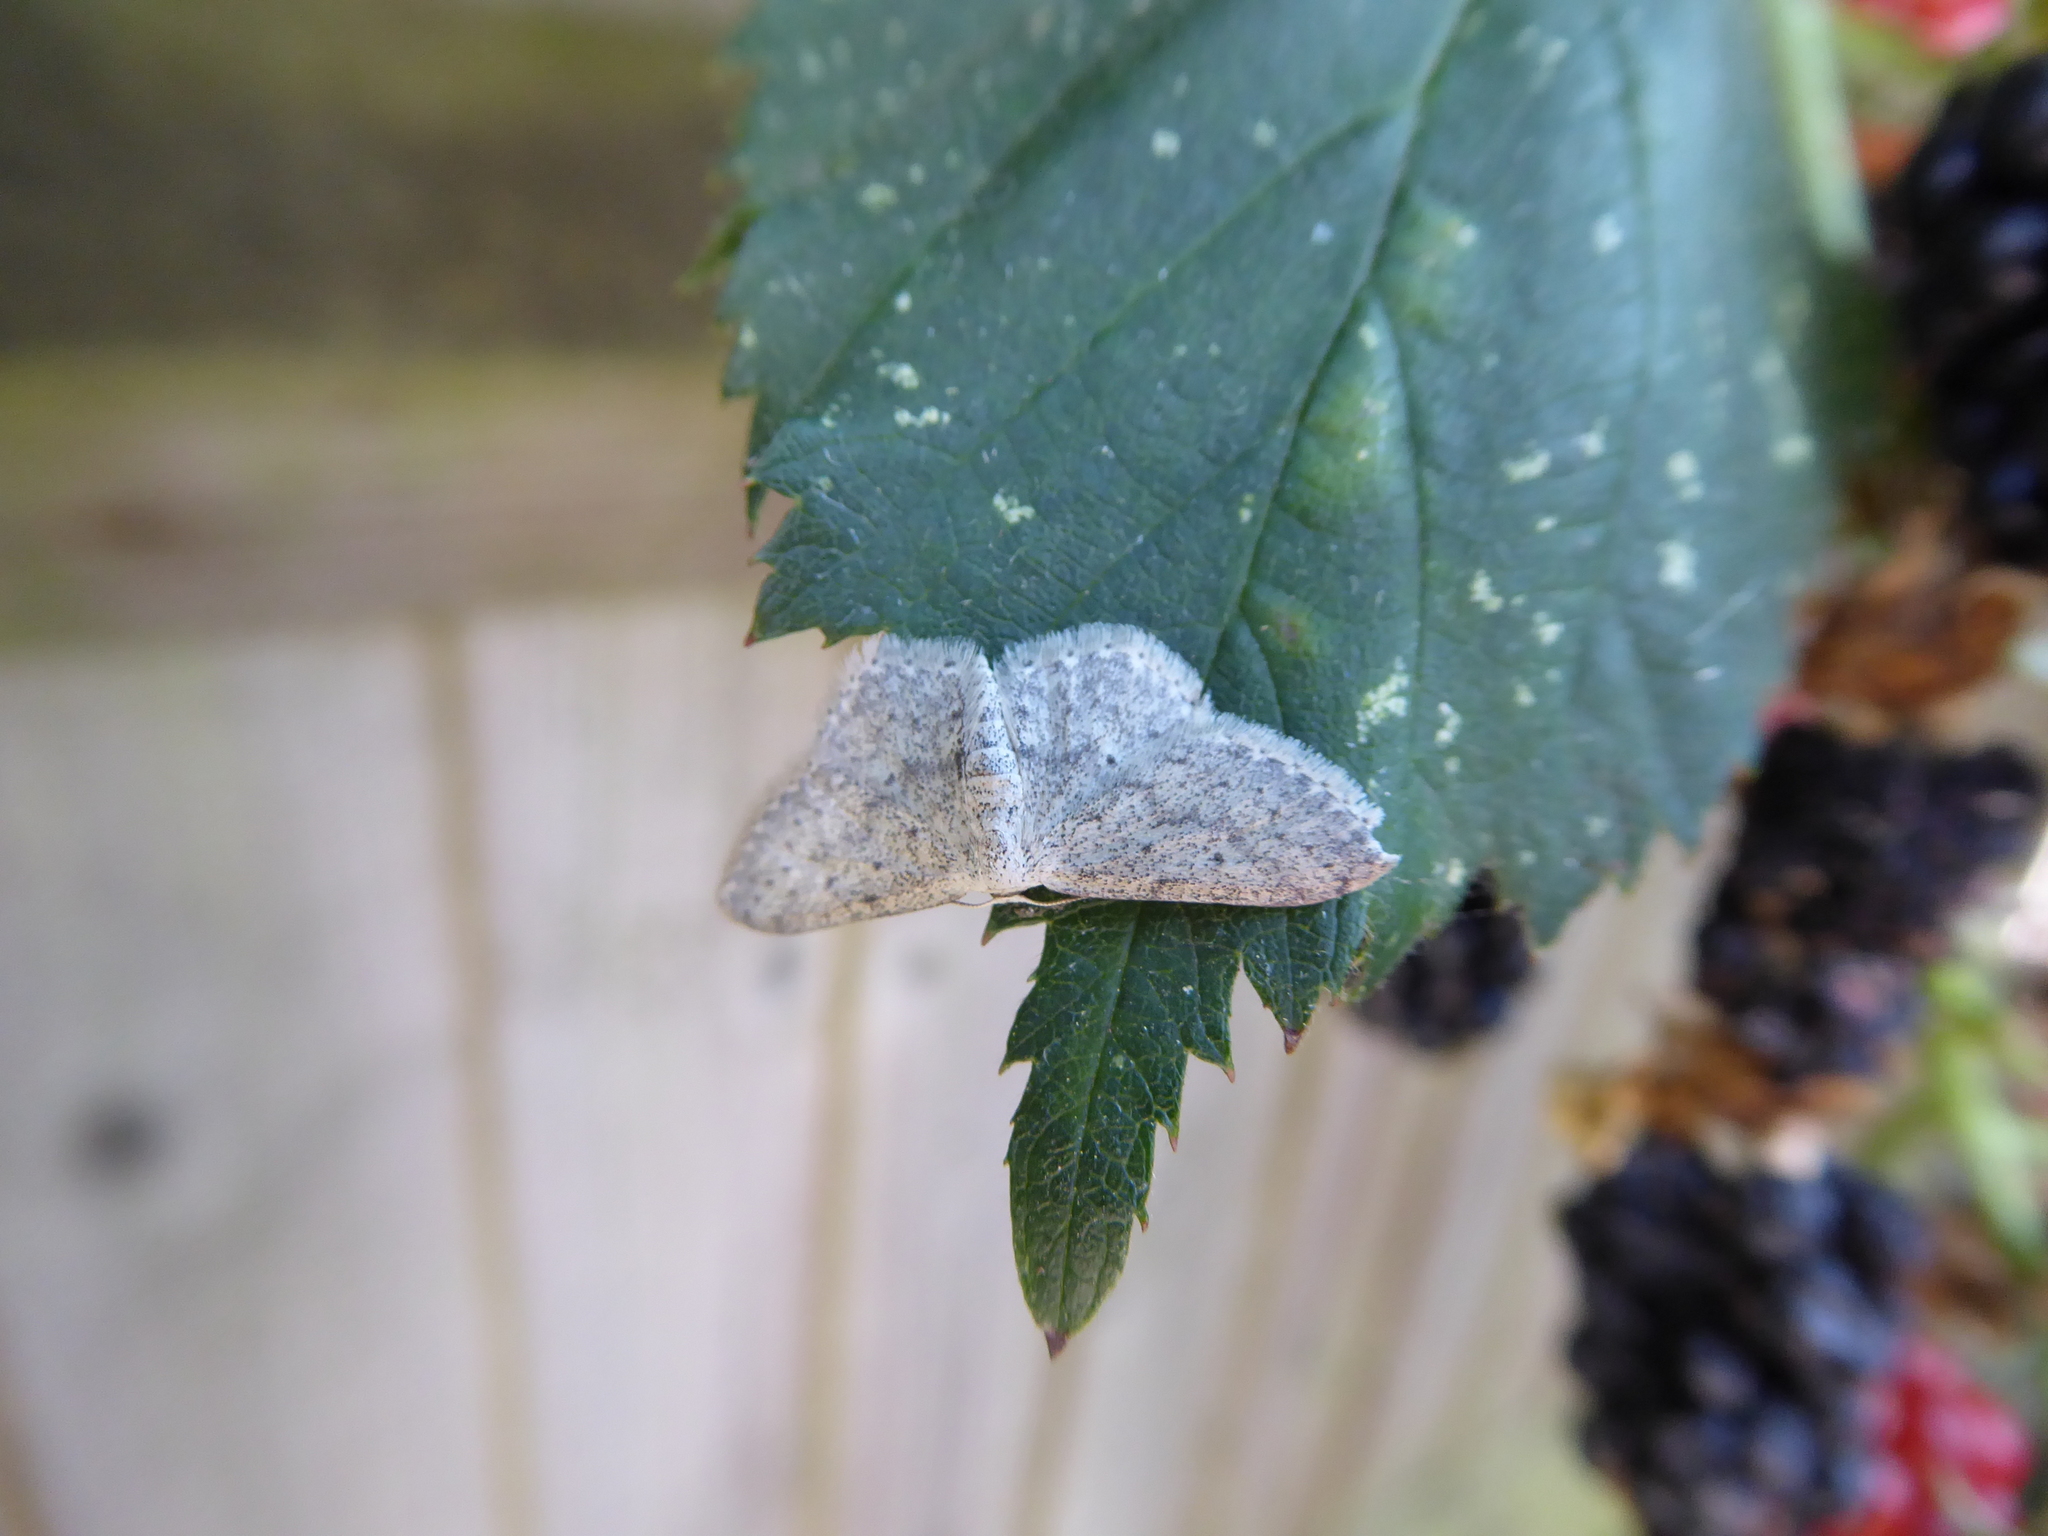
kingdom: Animalia
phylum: Arthropoda
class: Insecta
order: Lepidoptera
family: Geometridae
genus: Idaea
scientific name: Idaea seriata
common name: Small dusty wave
